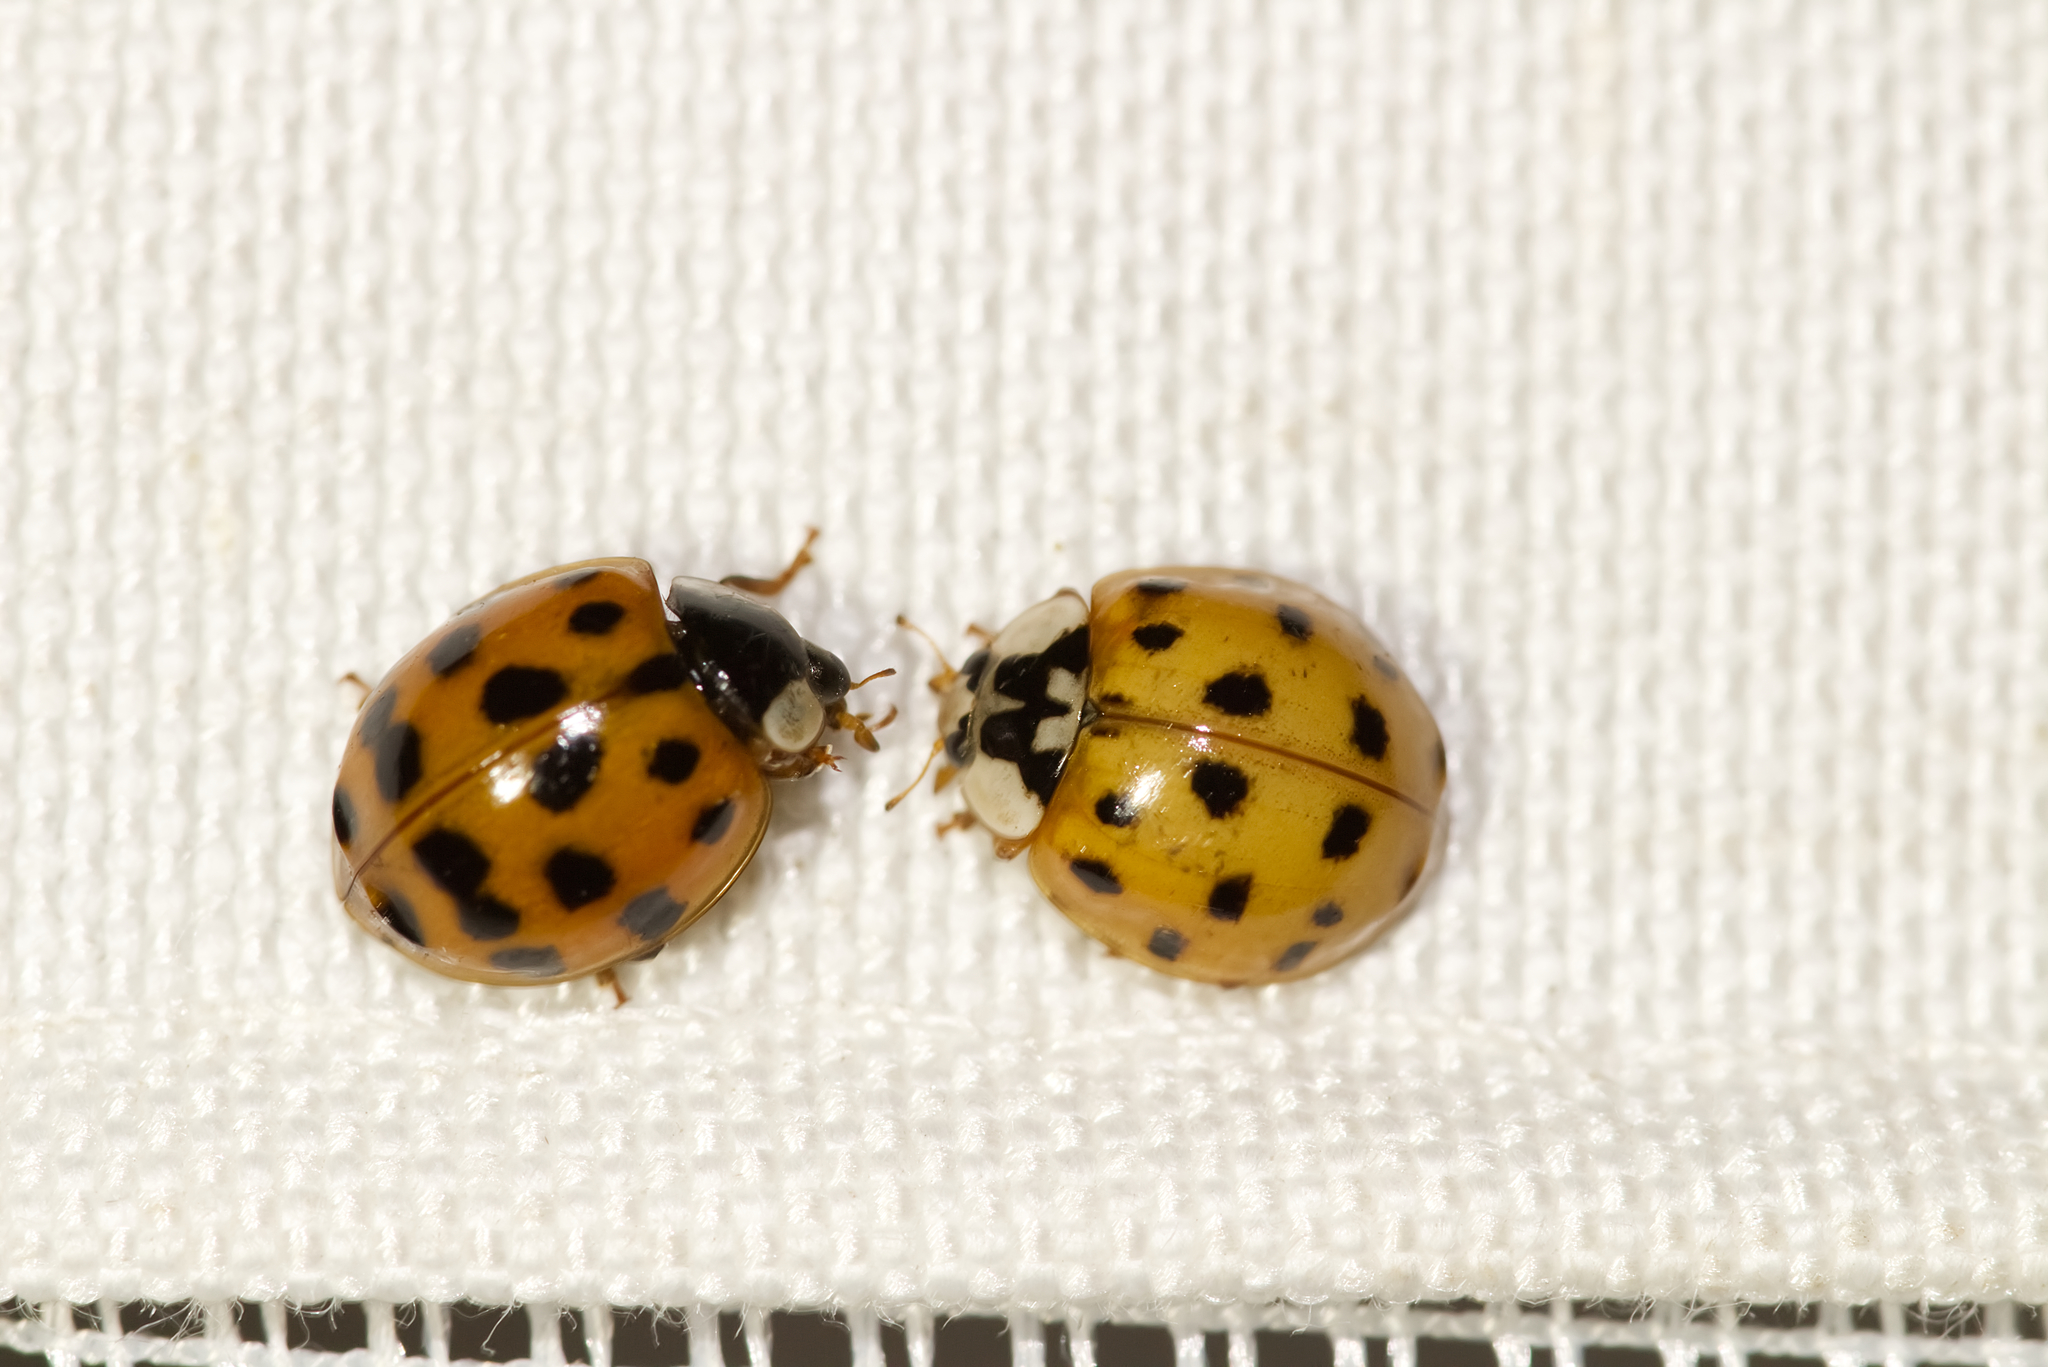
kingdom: Animalia
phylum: Arthropoda
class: Insecta
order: Coleoptera
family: Coccinellidae
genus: Harmonia
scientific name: Harmonia axyridis
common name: Harlequin ladybird
